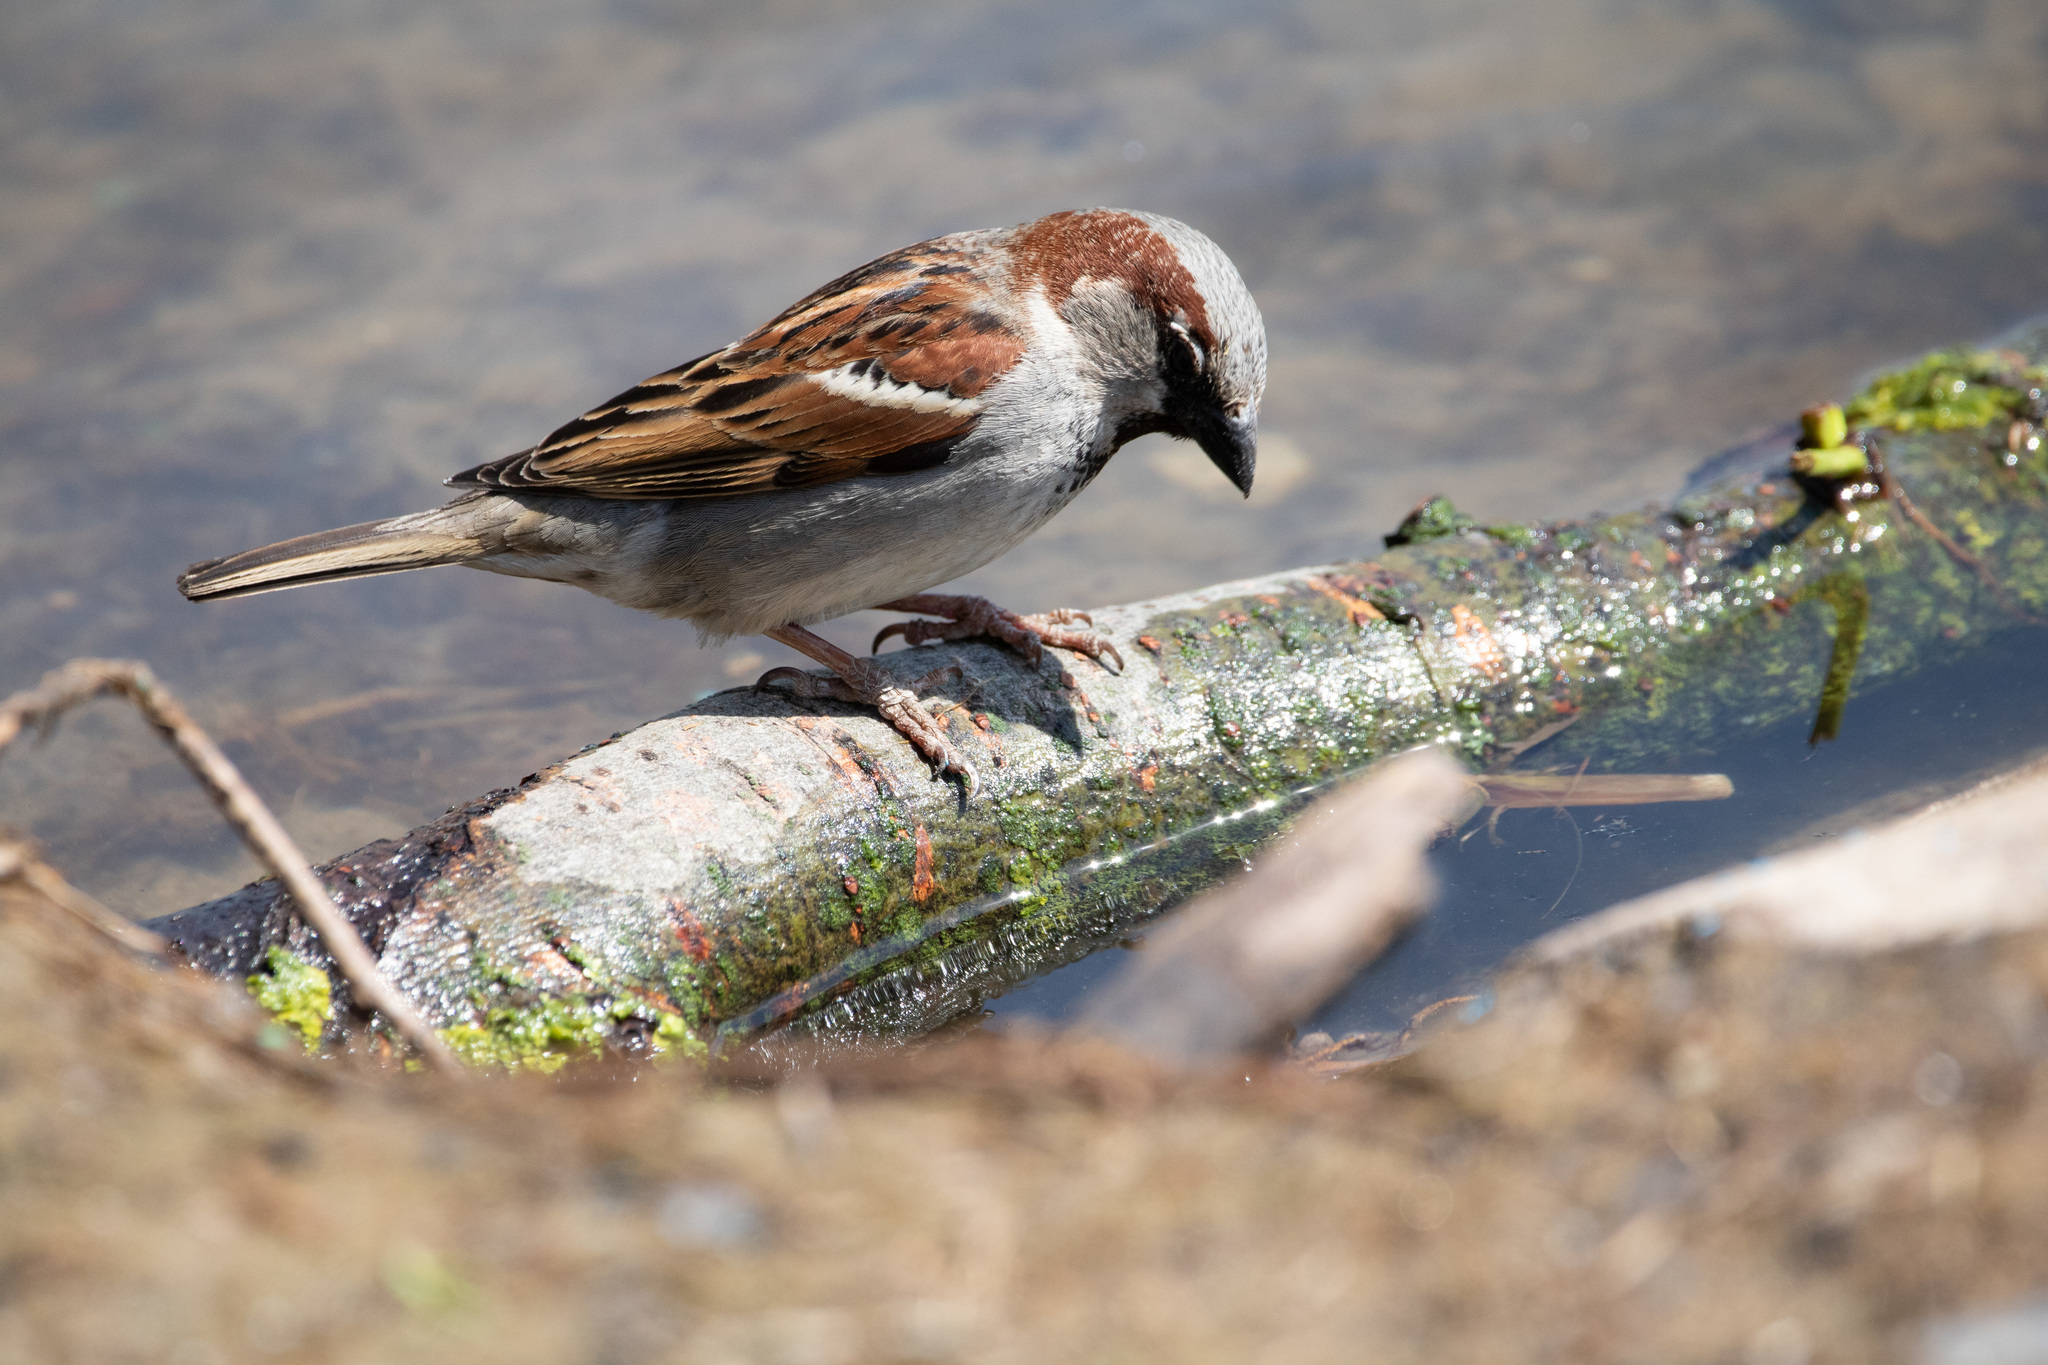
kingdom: Animalia
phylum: Chordata
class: Aves
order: Passeriformes
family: Passeridae
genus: Passer
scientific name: Passer domesticus
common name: House sparrow
